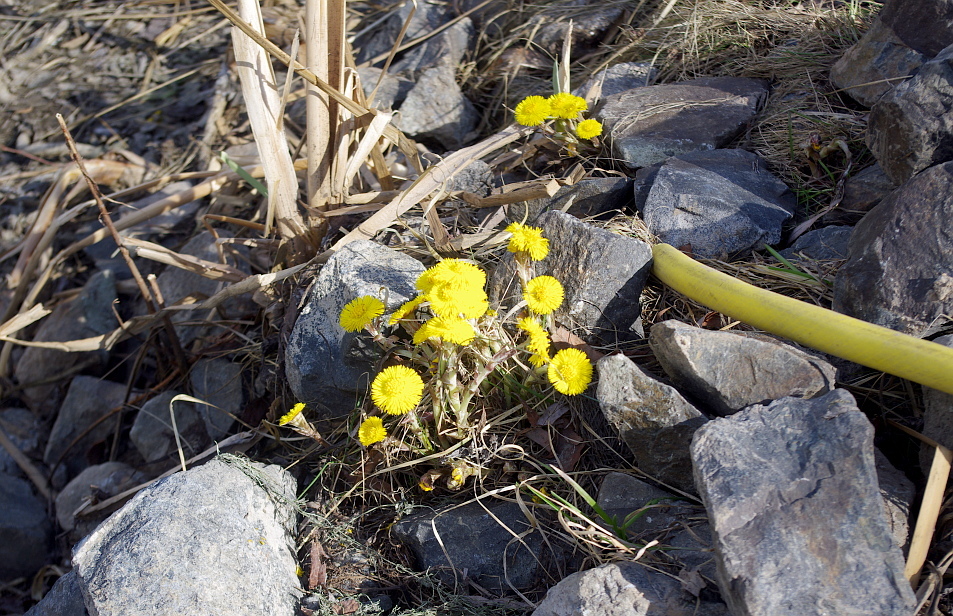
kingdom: Plantae
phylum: Tracheophyta
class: Magnoliopsida
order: Asterales
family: Asteraceae
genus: Tussilago
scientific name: Tussilago farfara
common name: Coltsfoot
